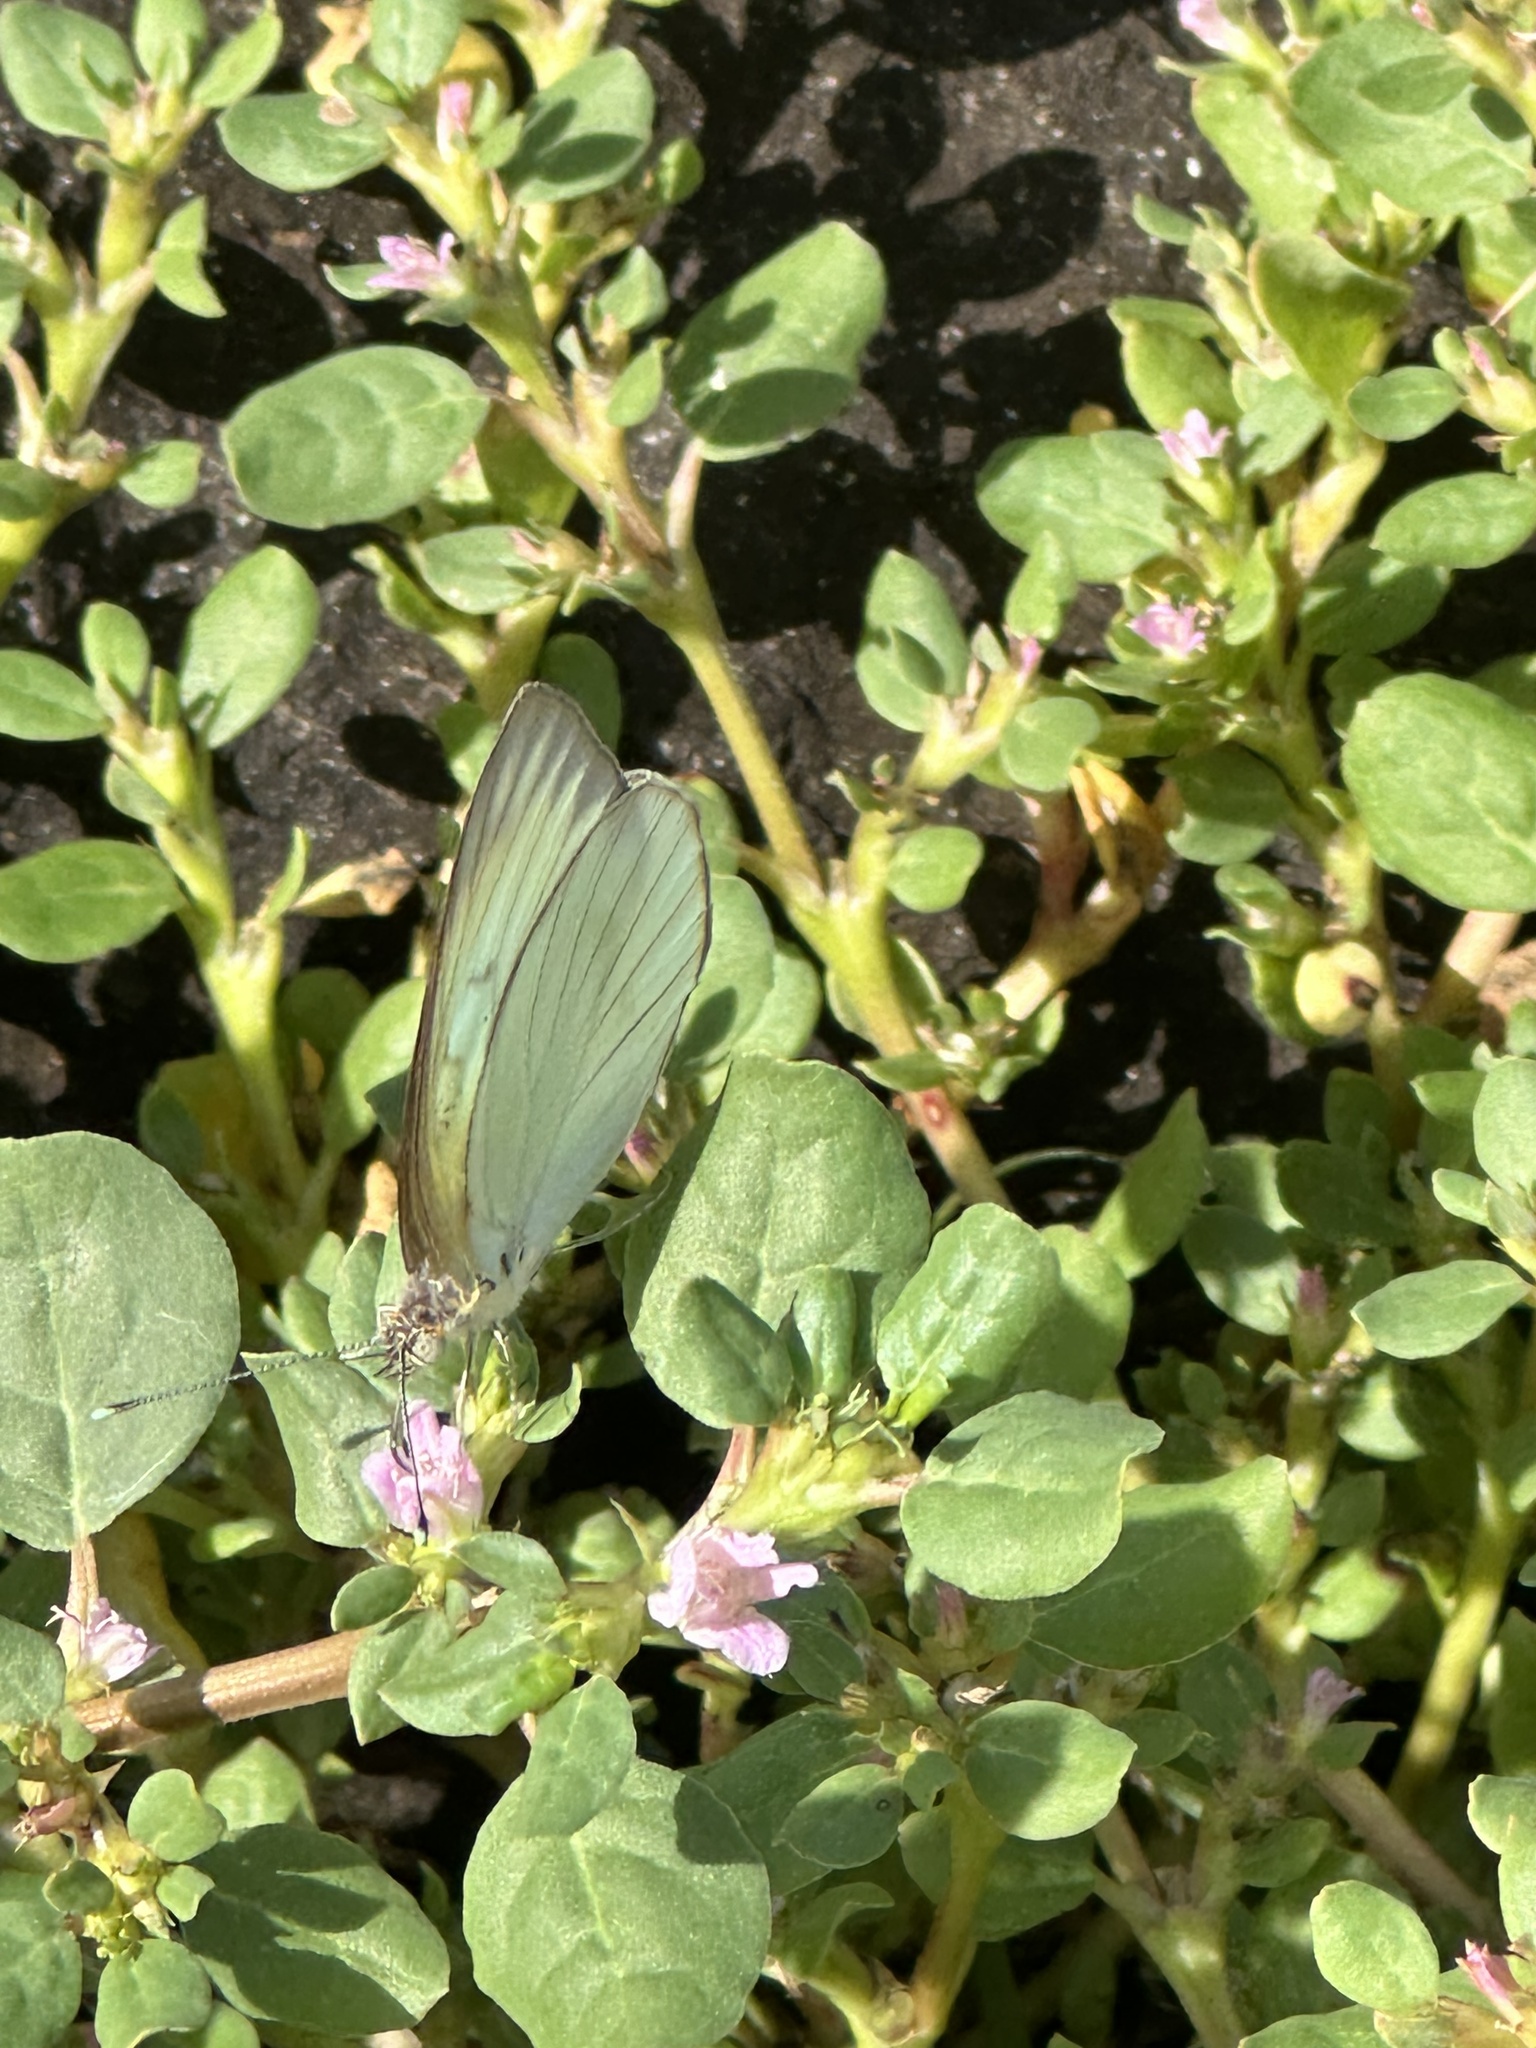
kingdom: Animalia
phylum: Arthropoda
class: Insecta
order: Lepidoptera
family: Pieridae
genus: Ascia
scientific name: Ascia monuste
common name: Great southern white
